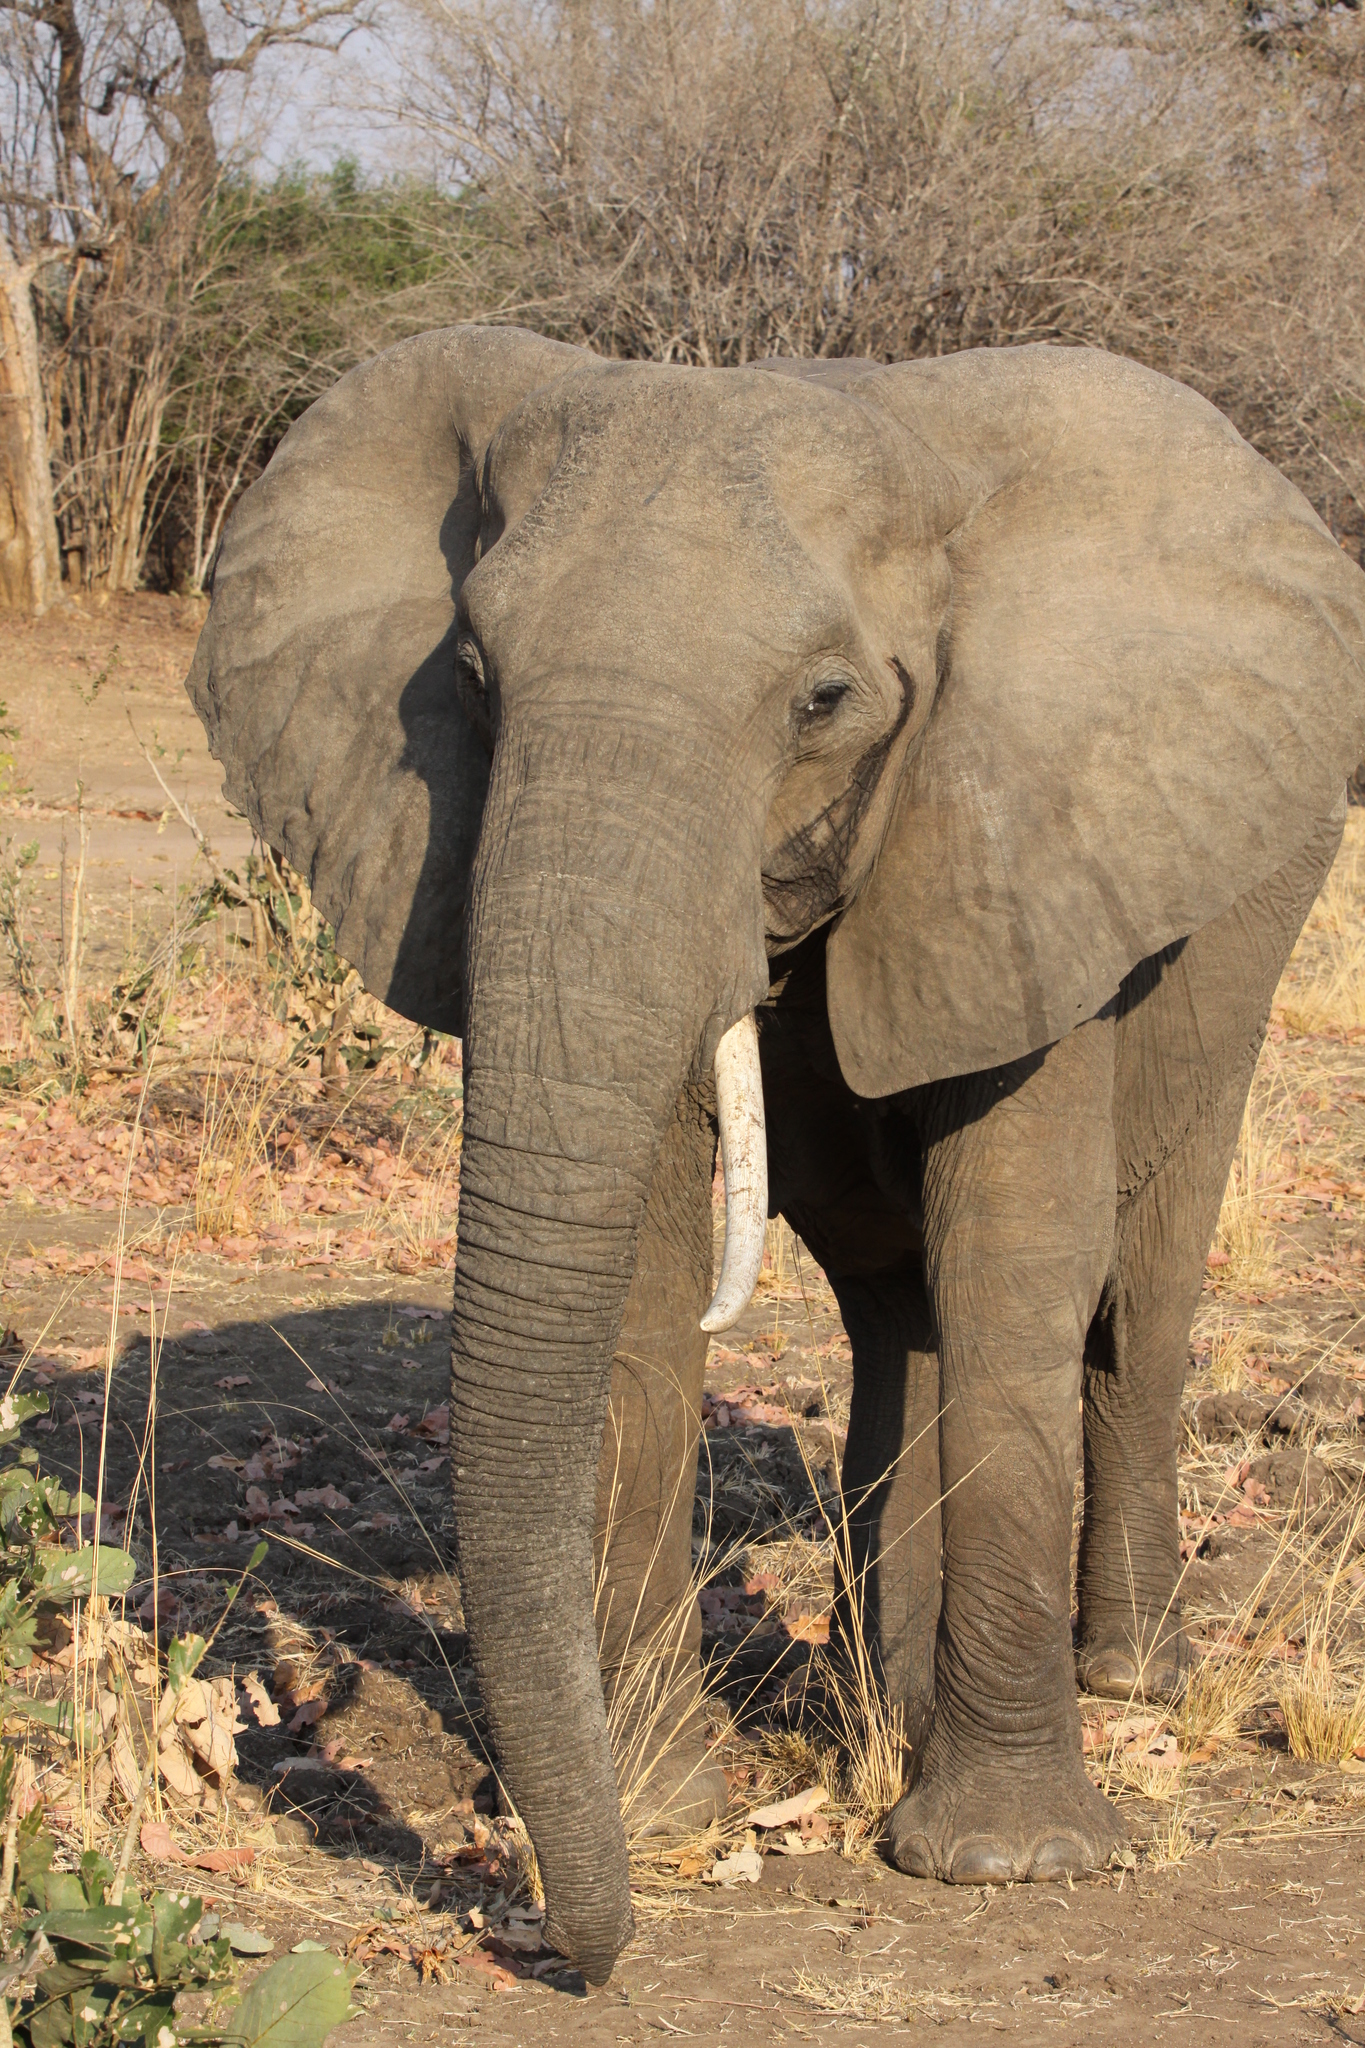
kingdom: Animalia
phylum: Chordata
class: Mammalia
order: Proboscidea
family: Elephantidae
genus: Loxodonta
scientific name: Loxodonta africana
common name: African elephant
